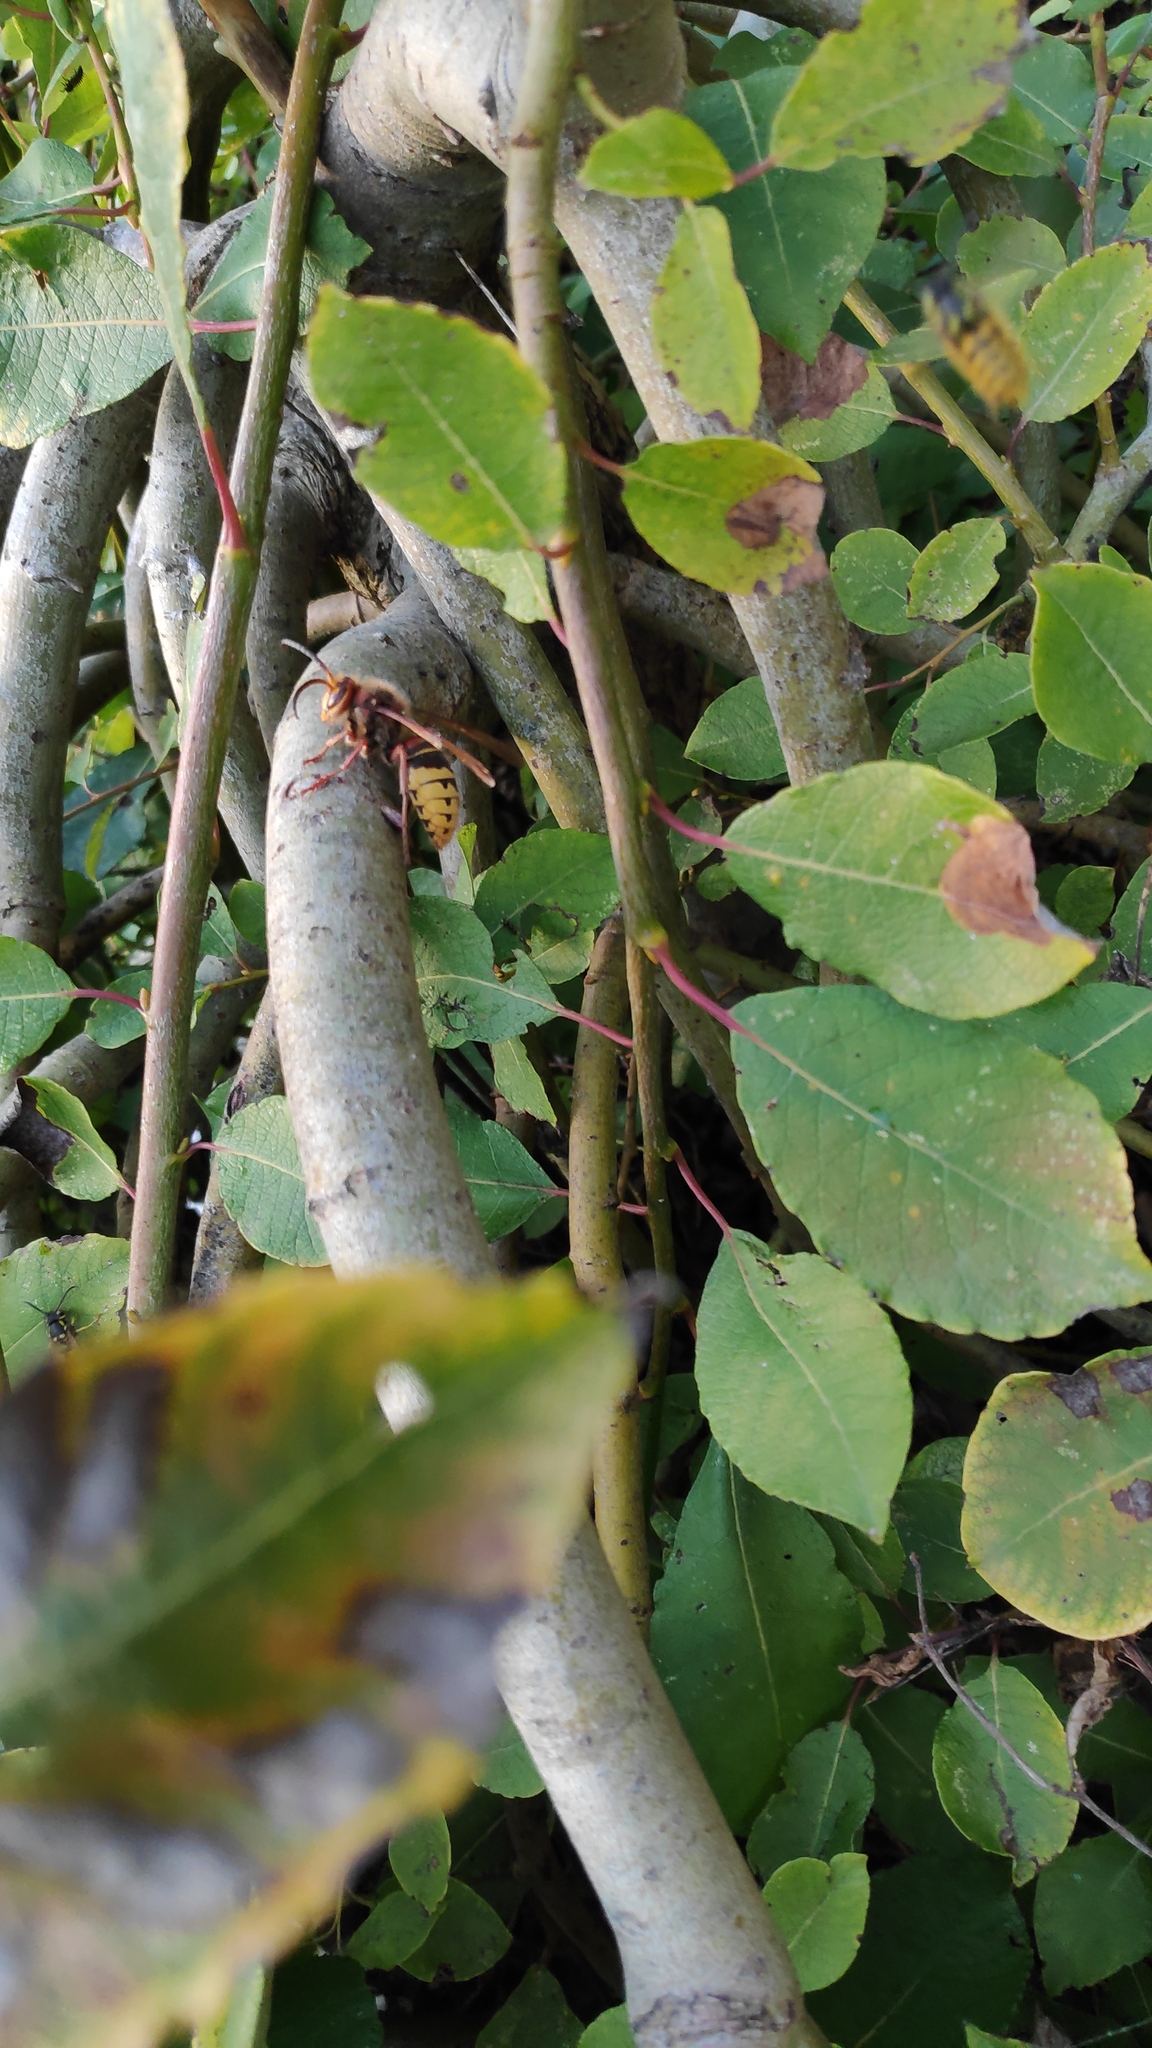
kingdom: Animalia
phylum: Arthropoda
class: Insecta
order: Hymenoptera
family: Vespidae
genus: Vespa
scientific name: Vespa crabro
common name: Hornet
